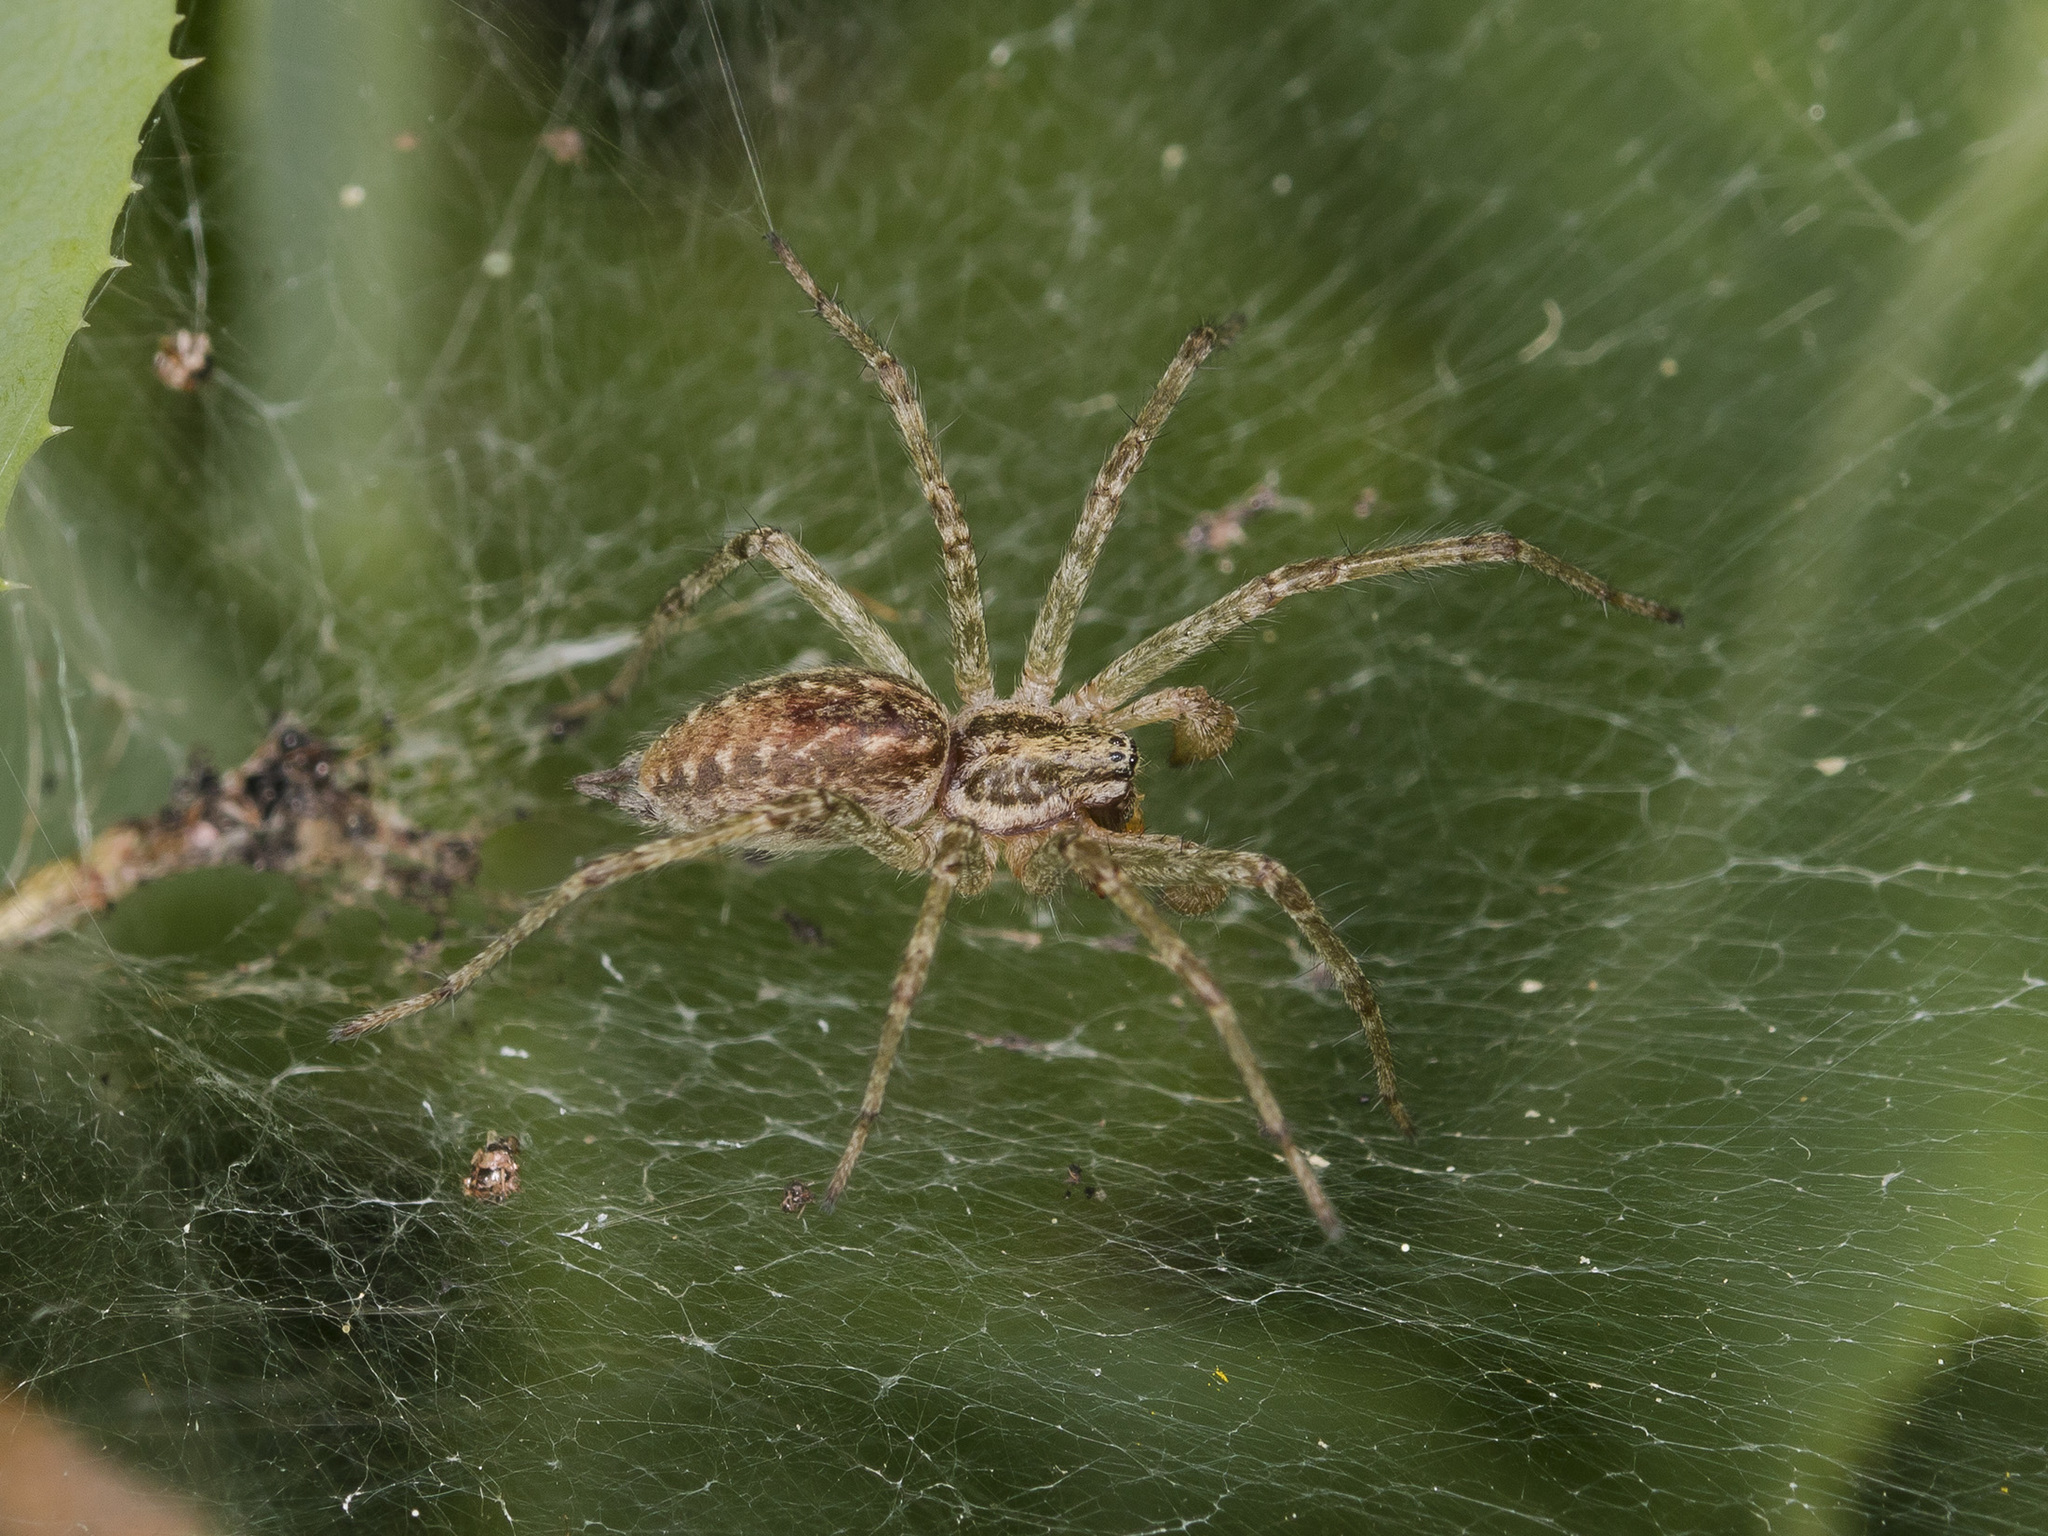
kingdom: Animalia
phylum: Arthropoda
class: Arachnida
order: Araneae
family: Agelenidae
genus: Allagelena
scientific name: Allagelena gracilens
